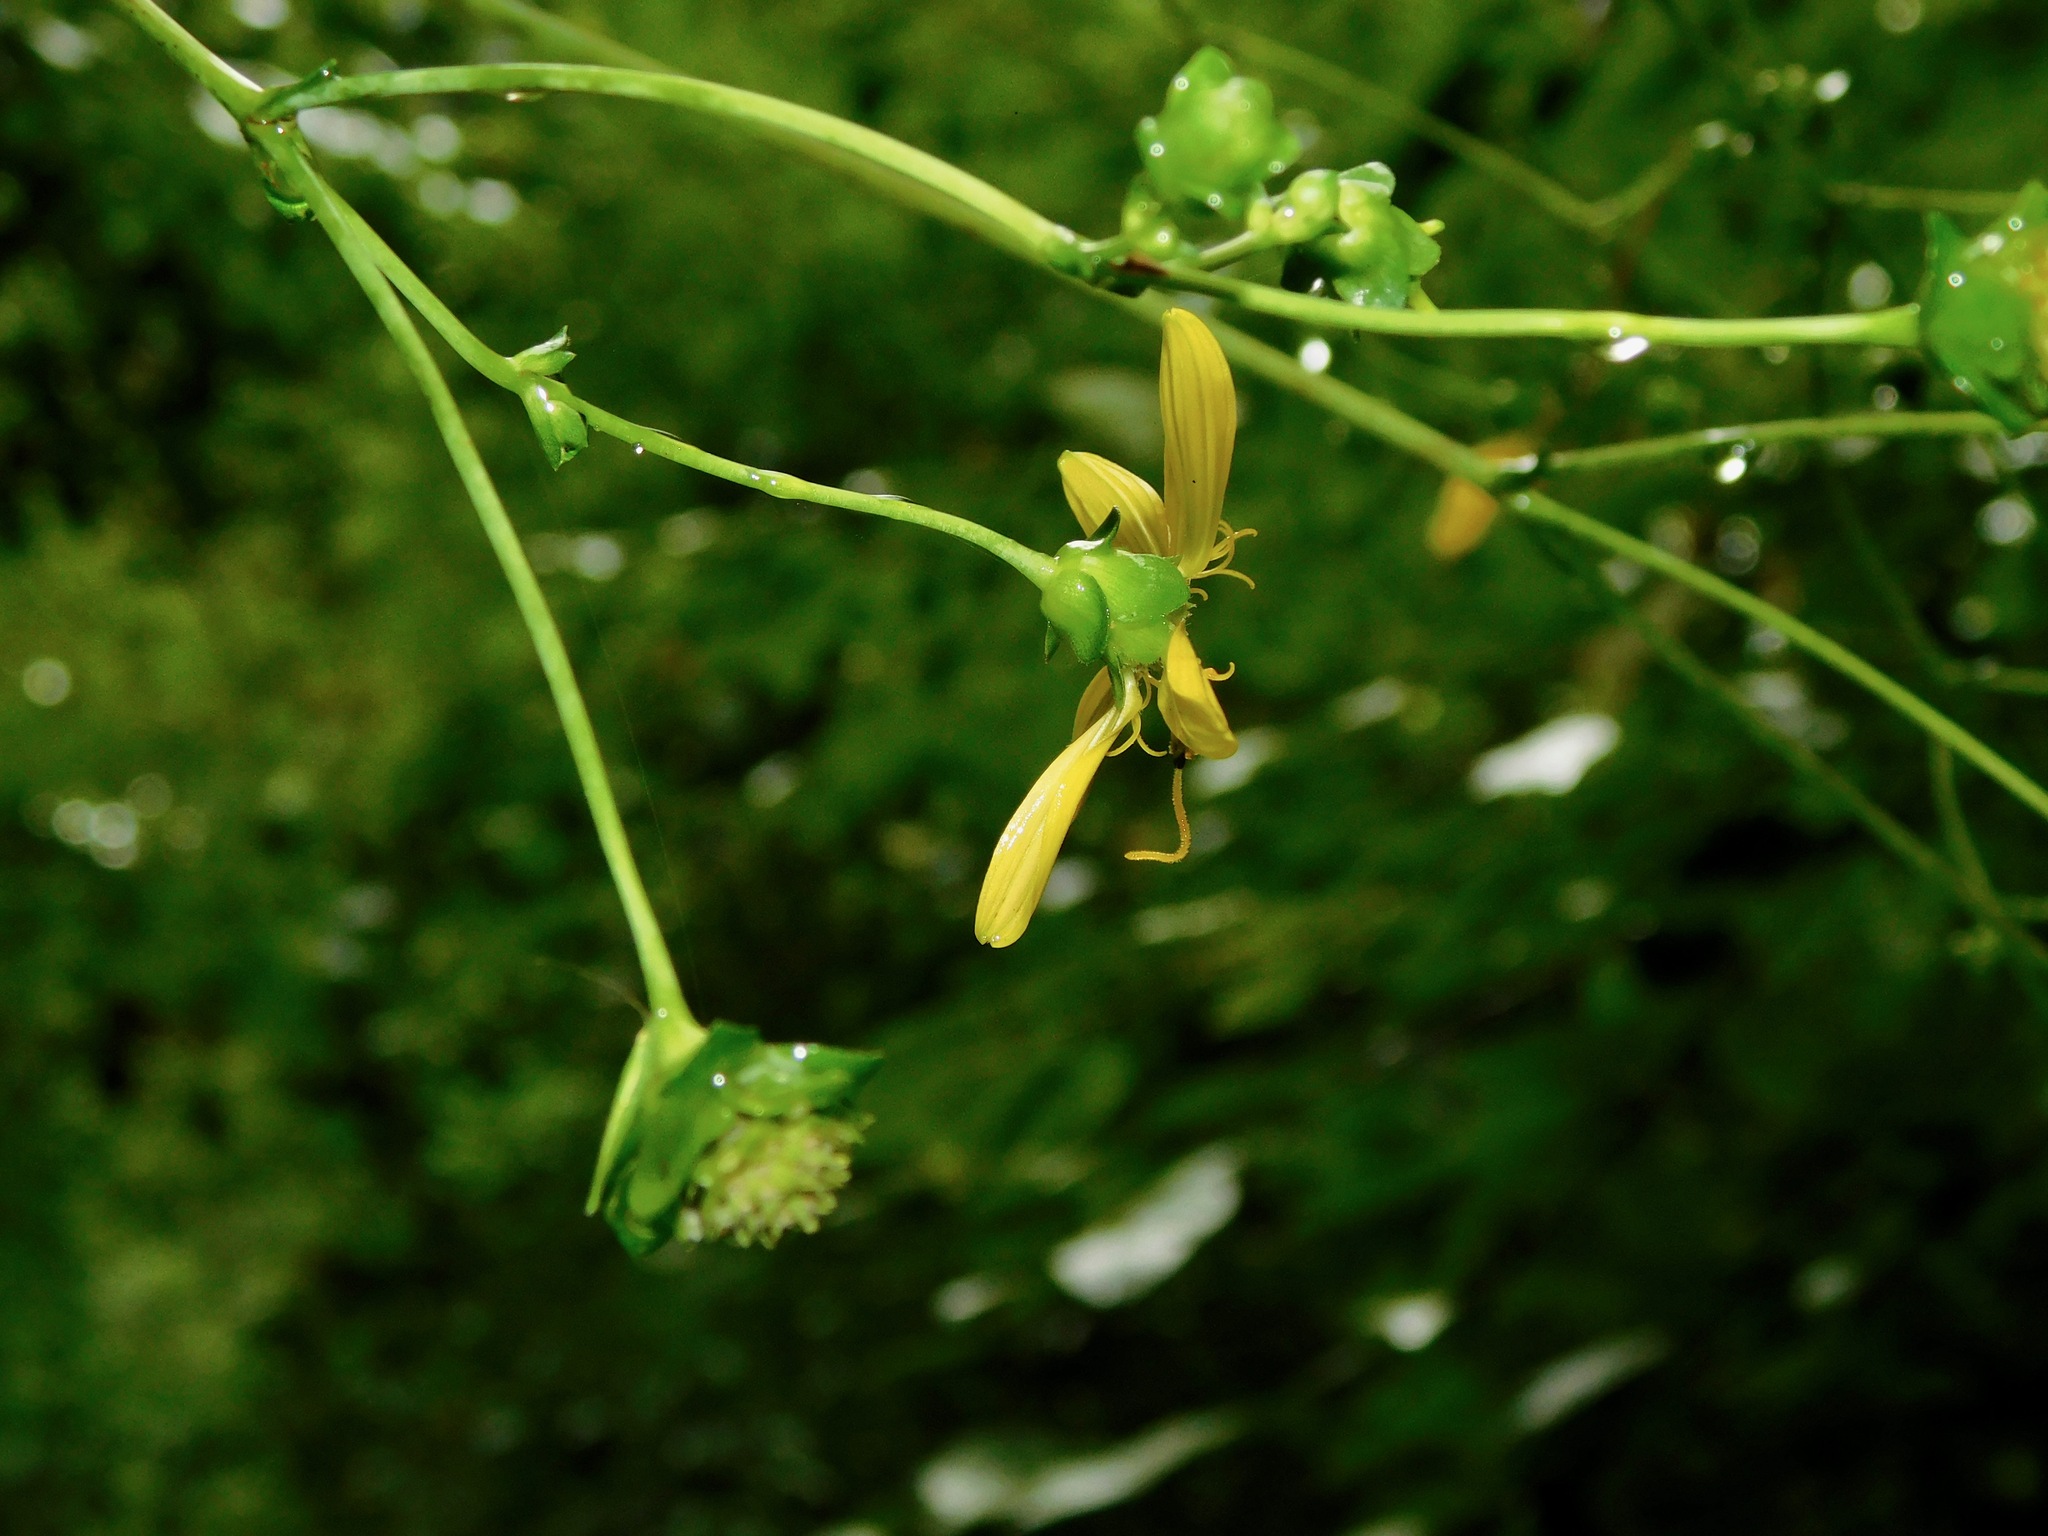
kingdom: Plantae
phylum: Tracheophyta
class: Magnoliopsida
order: Asterales
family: Asteraceae
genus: Silphium
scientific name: Silphium compositum
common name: Lesser basal-leaf rosinweed
